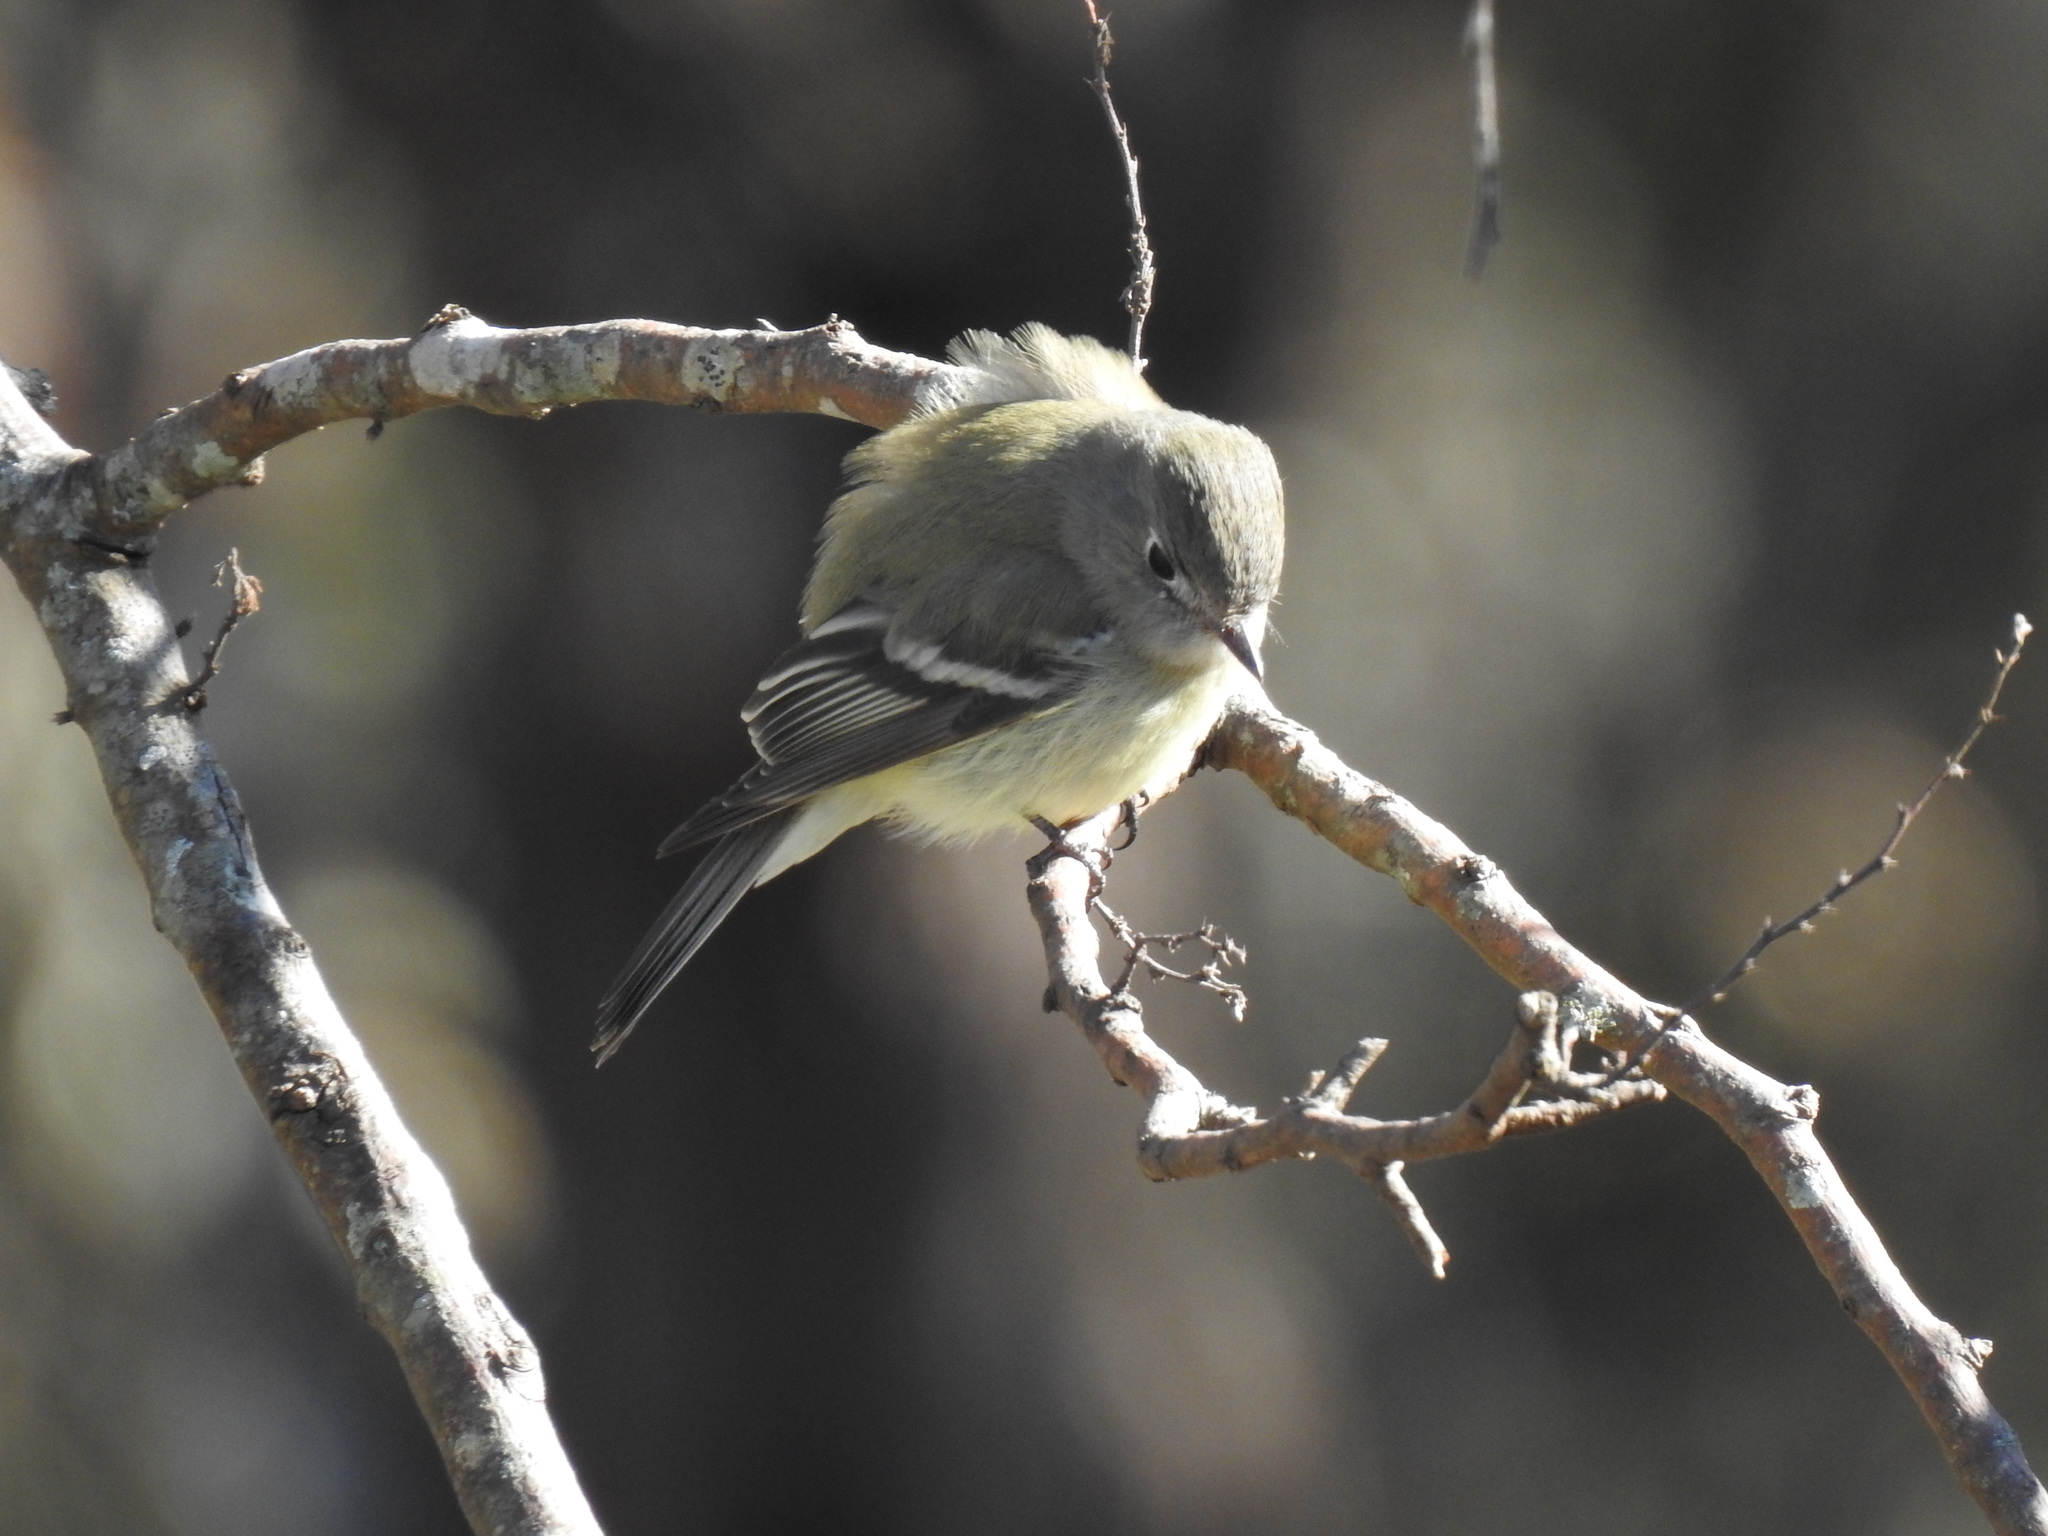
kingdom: Animalia
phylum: Chordata
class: Aves
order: Passeriformes
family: Tyrannidae
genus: Empidonax
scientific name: Empidonax hammondii
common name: Hammond's flycatcher
